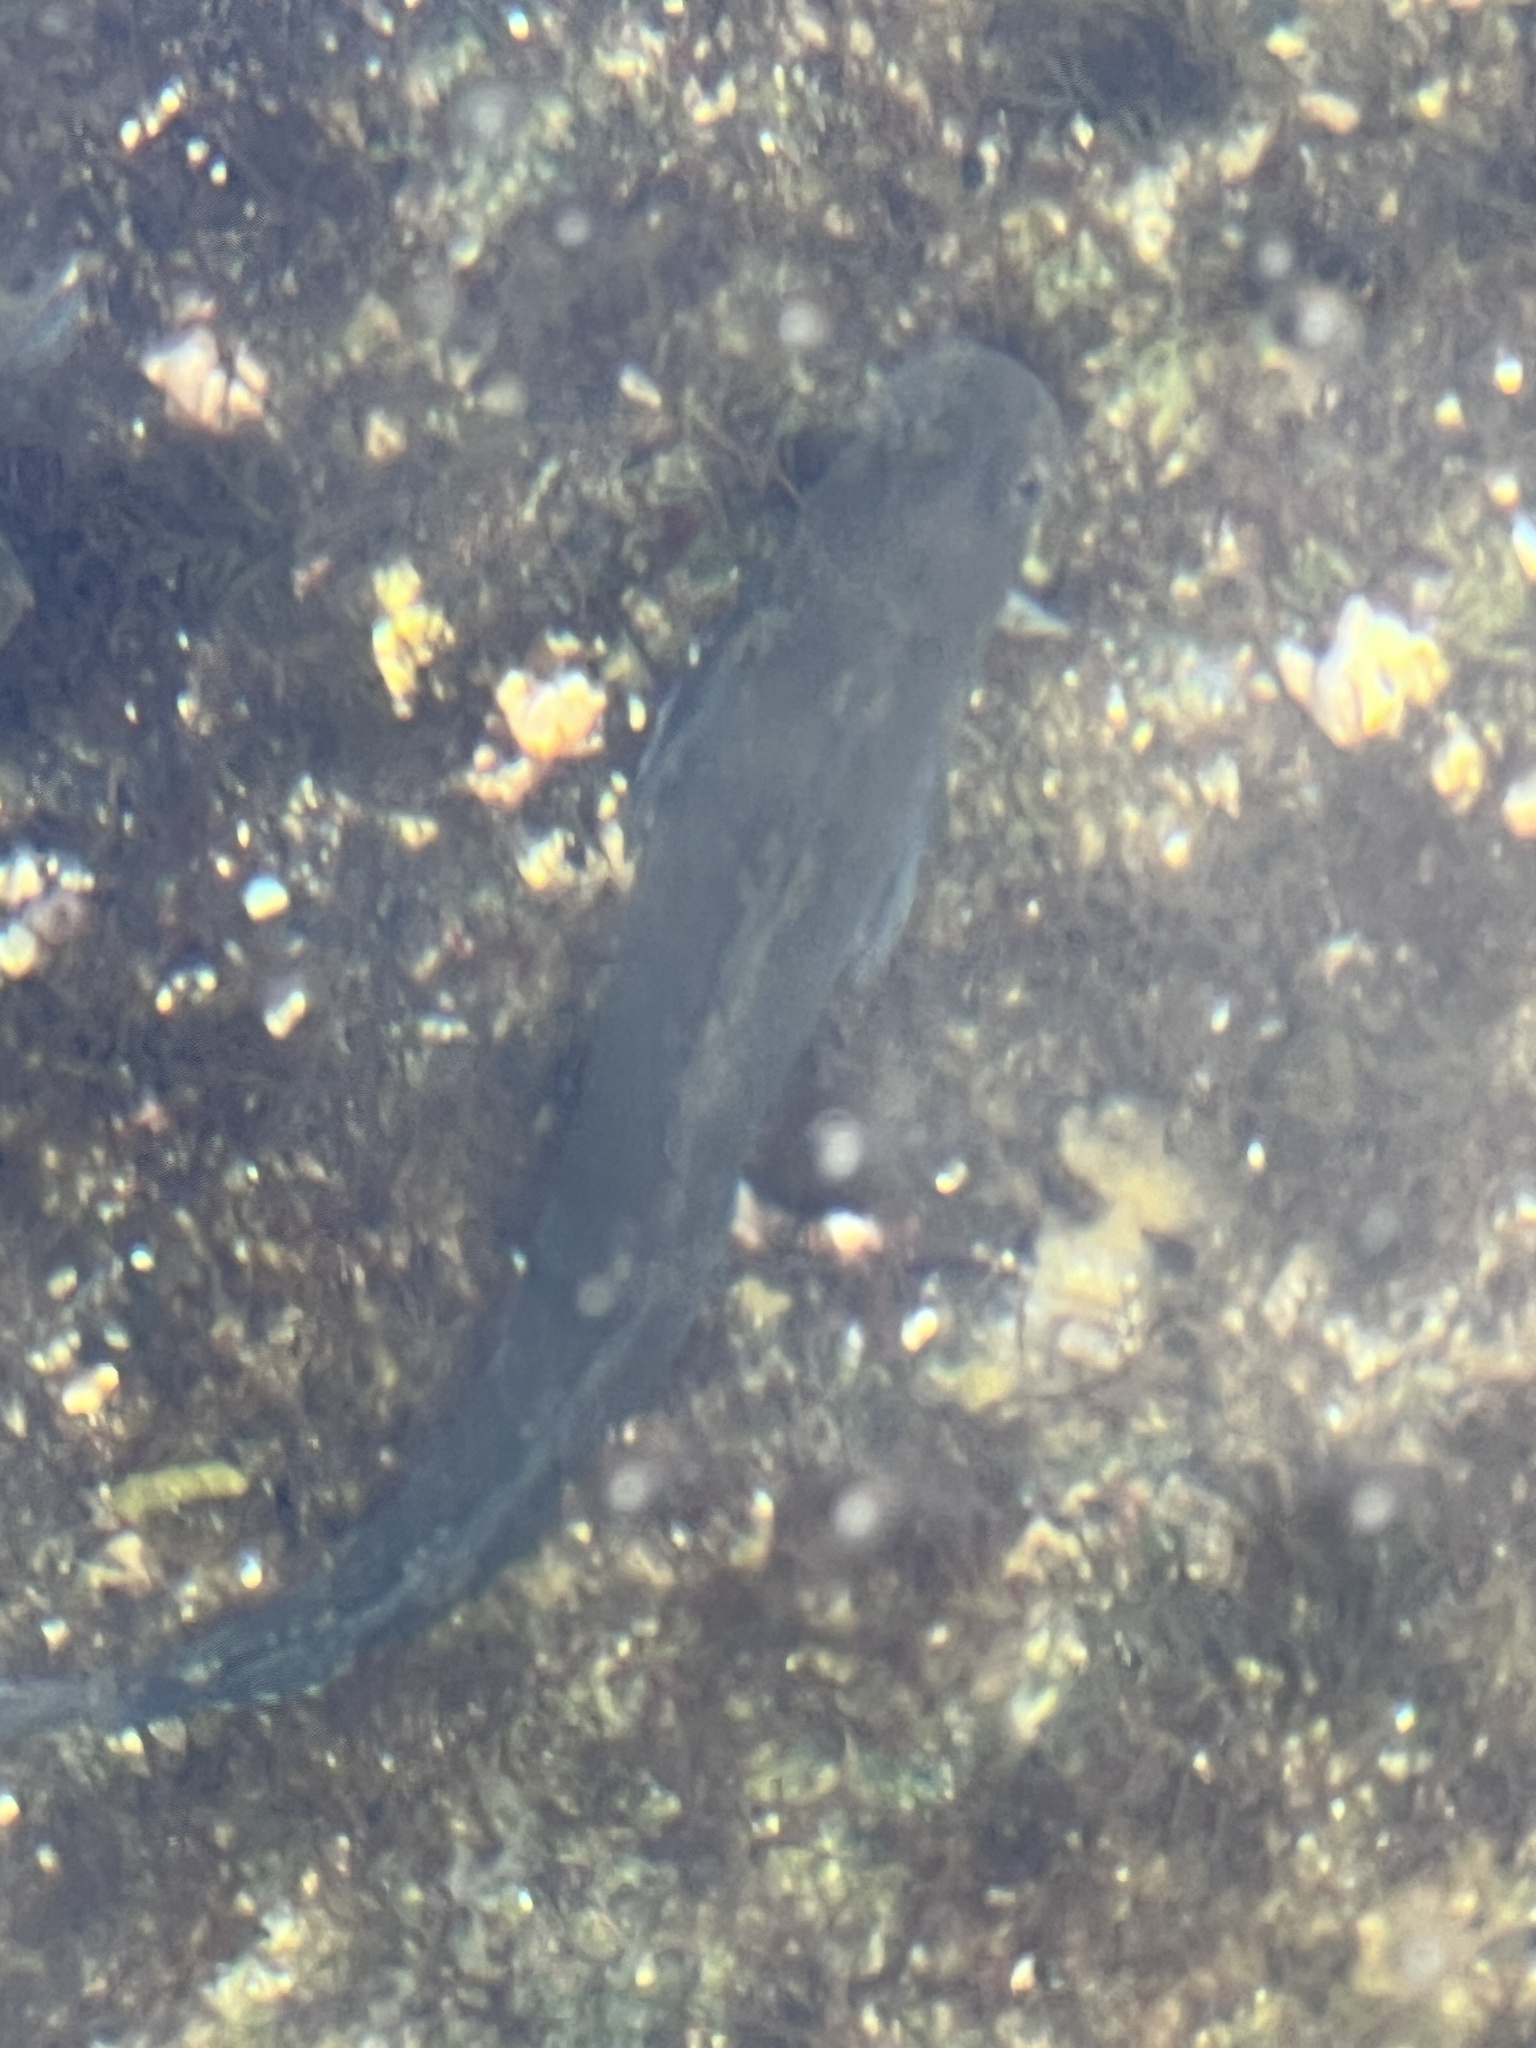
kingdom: Animalia
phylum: Chordata
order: Perciformes
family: Blenniidae
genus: Istiblennius
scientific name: Istiblennius zebra
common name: Zebra blenny
